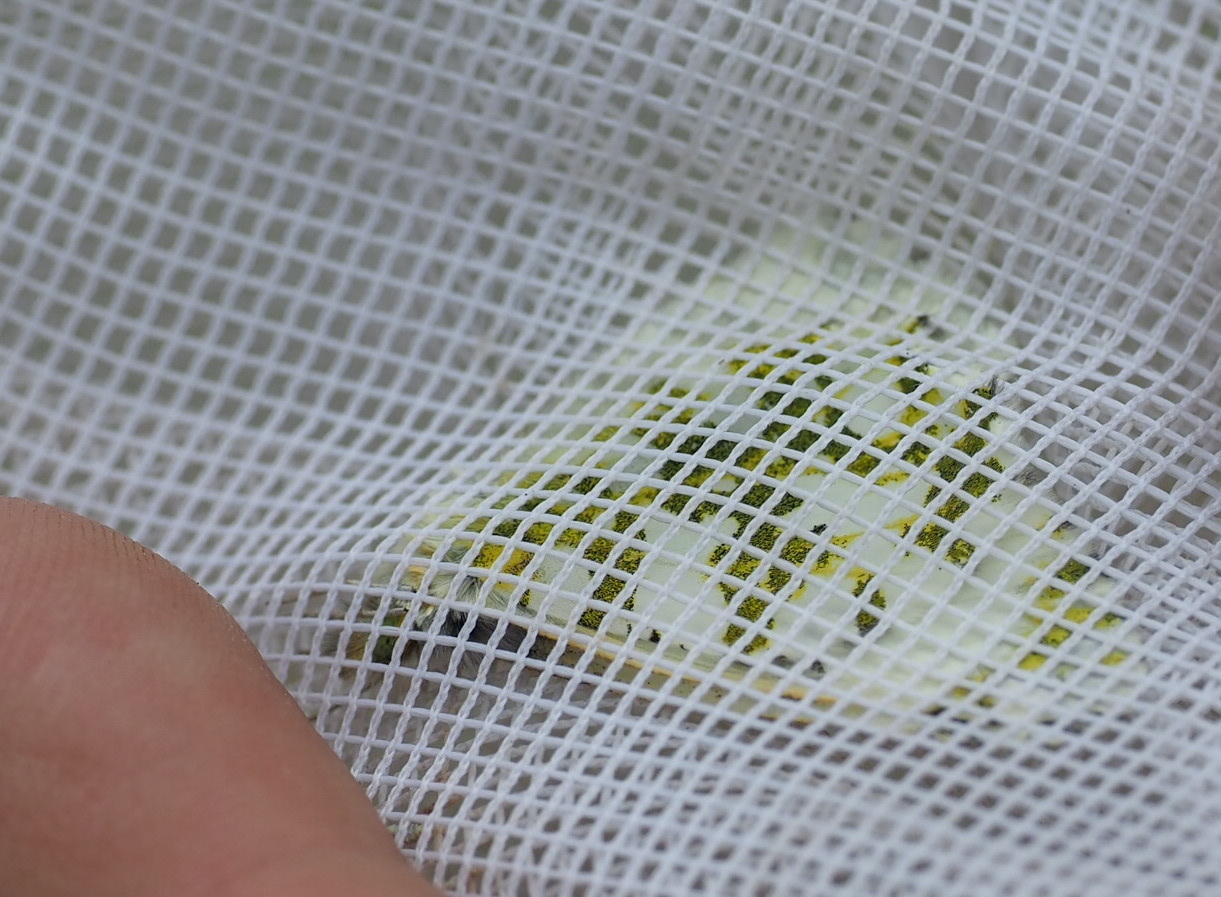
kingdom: Animalia
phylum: Arthropoda
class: Insecta
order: Lepidoptera
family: Pieridae
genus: Euchloe
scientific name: Euchloe ausonides
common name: Creamy marblewing
